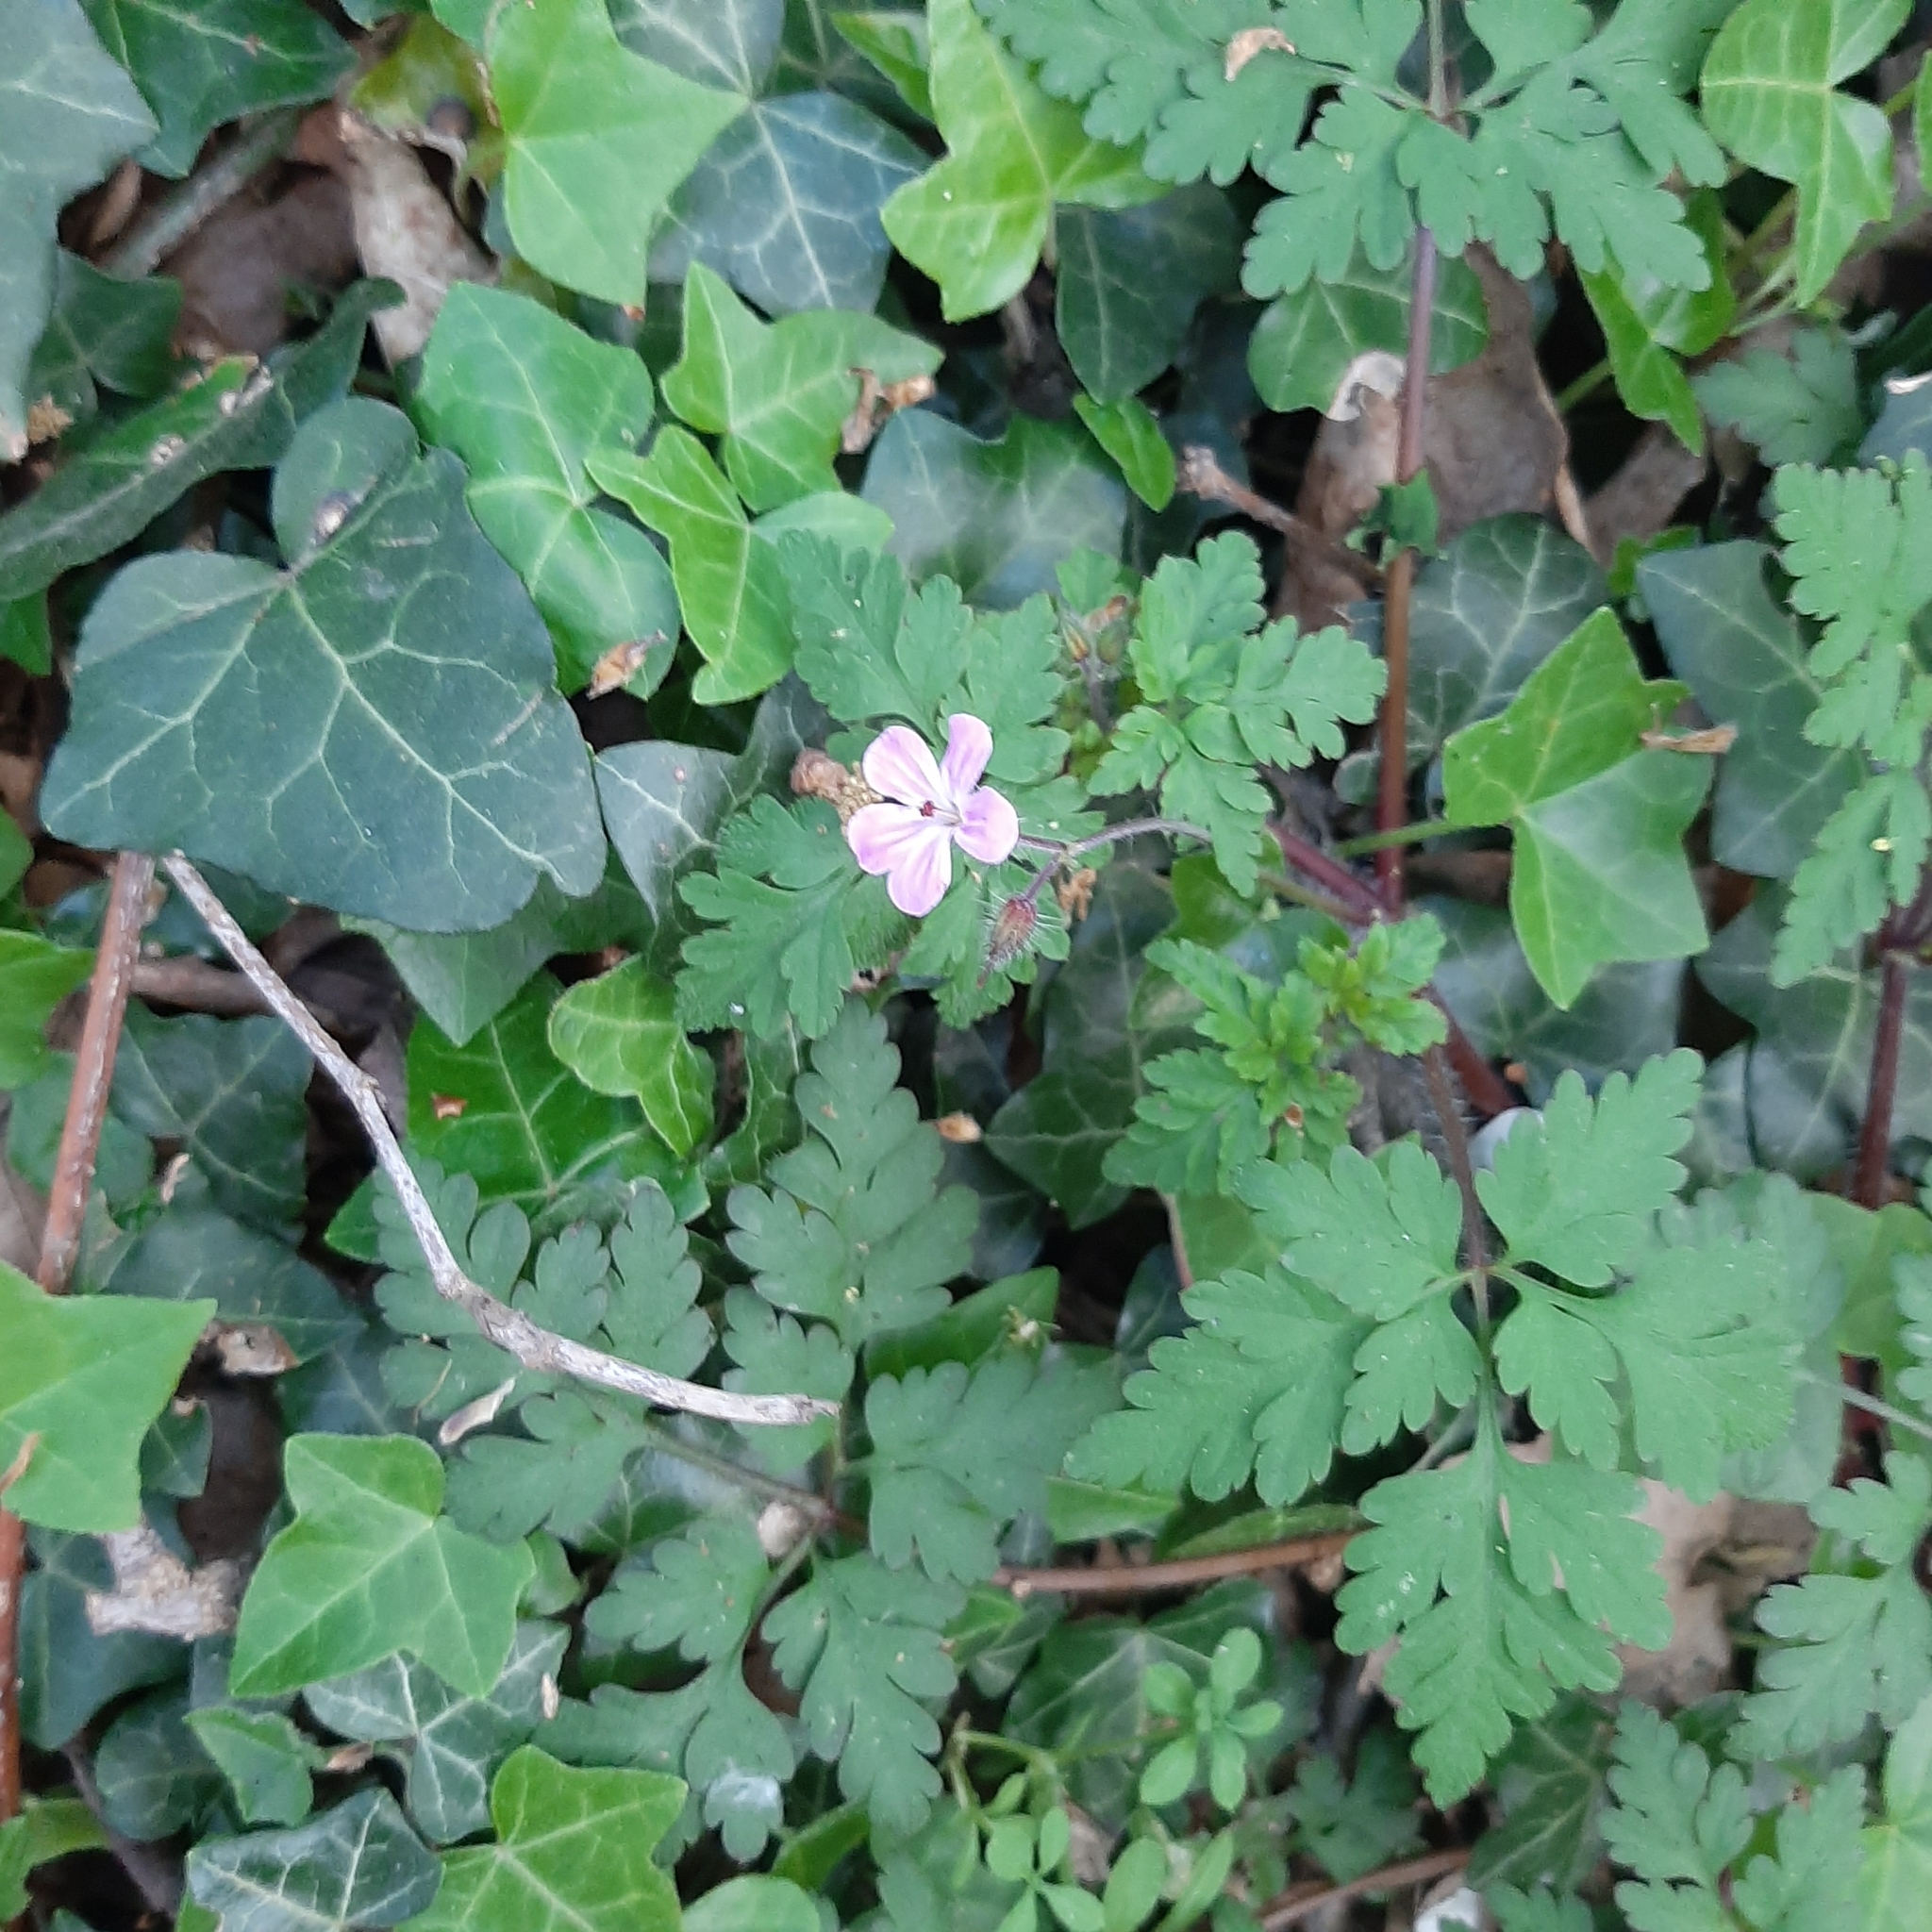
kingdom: Plantae
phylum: Tracheophyta
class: Magnoliopsida
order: Geraniales
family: Geraniaceae
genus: Geranium
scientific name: Geranium robertianum
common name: Herb-robert
